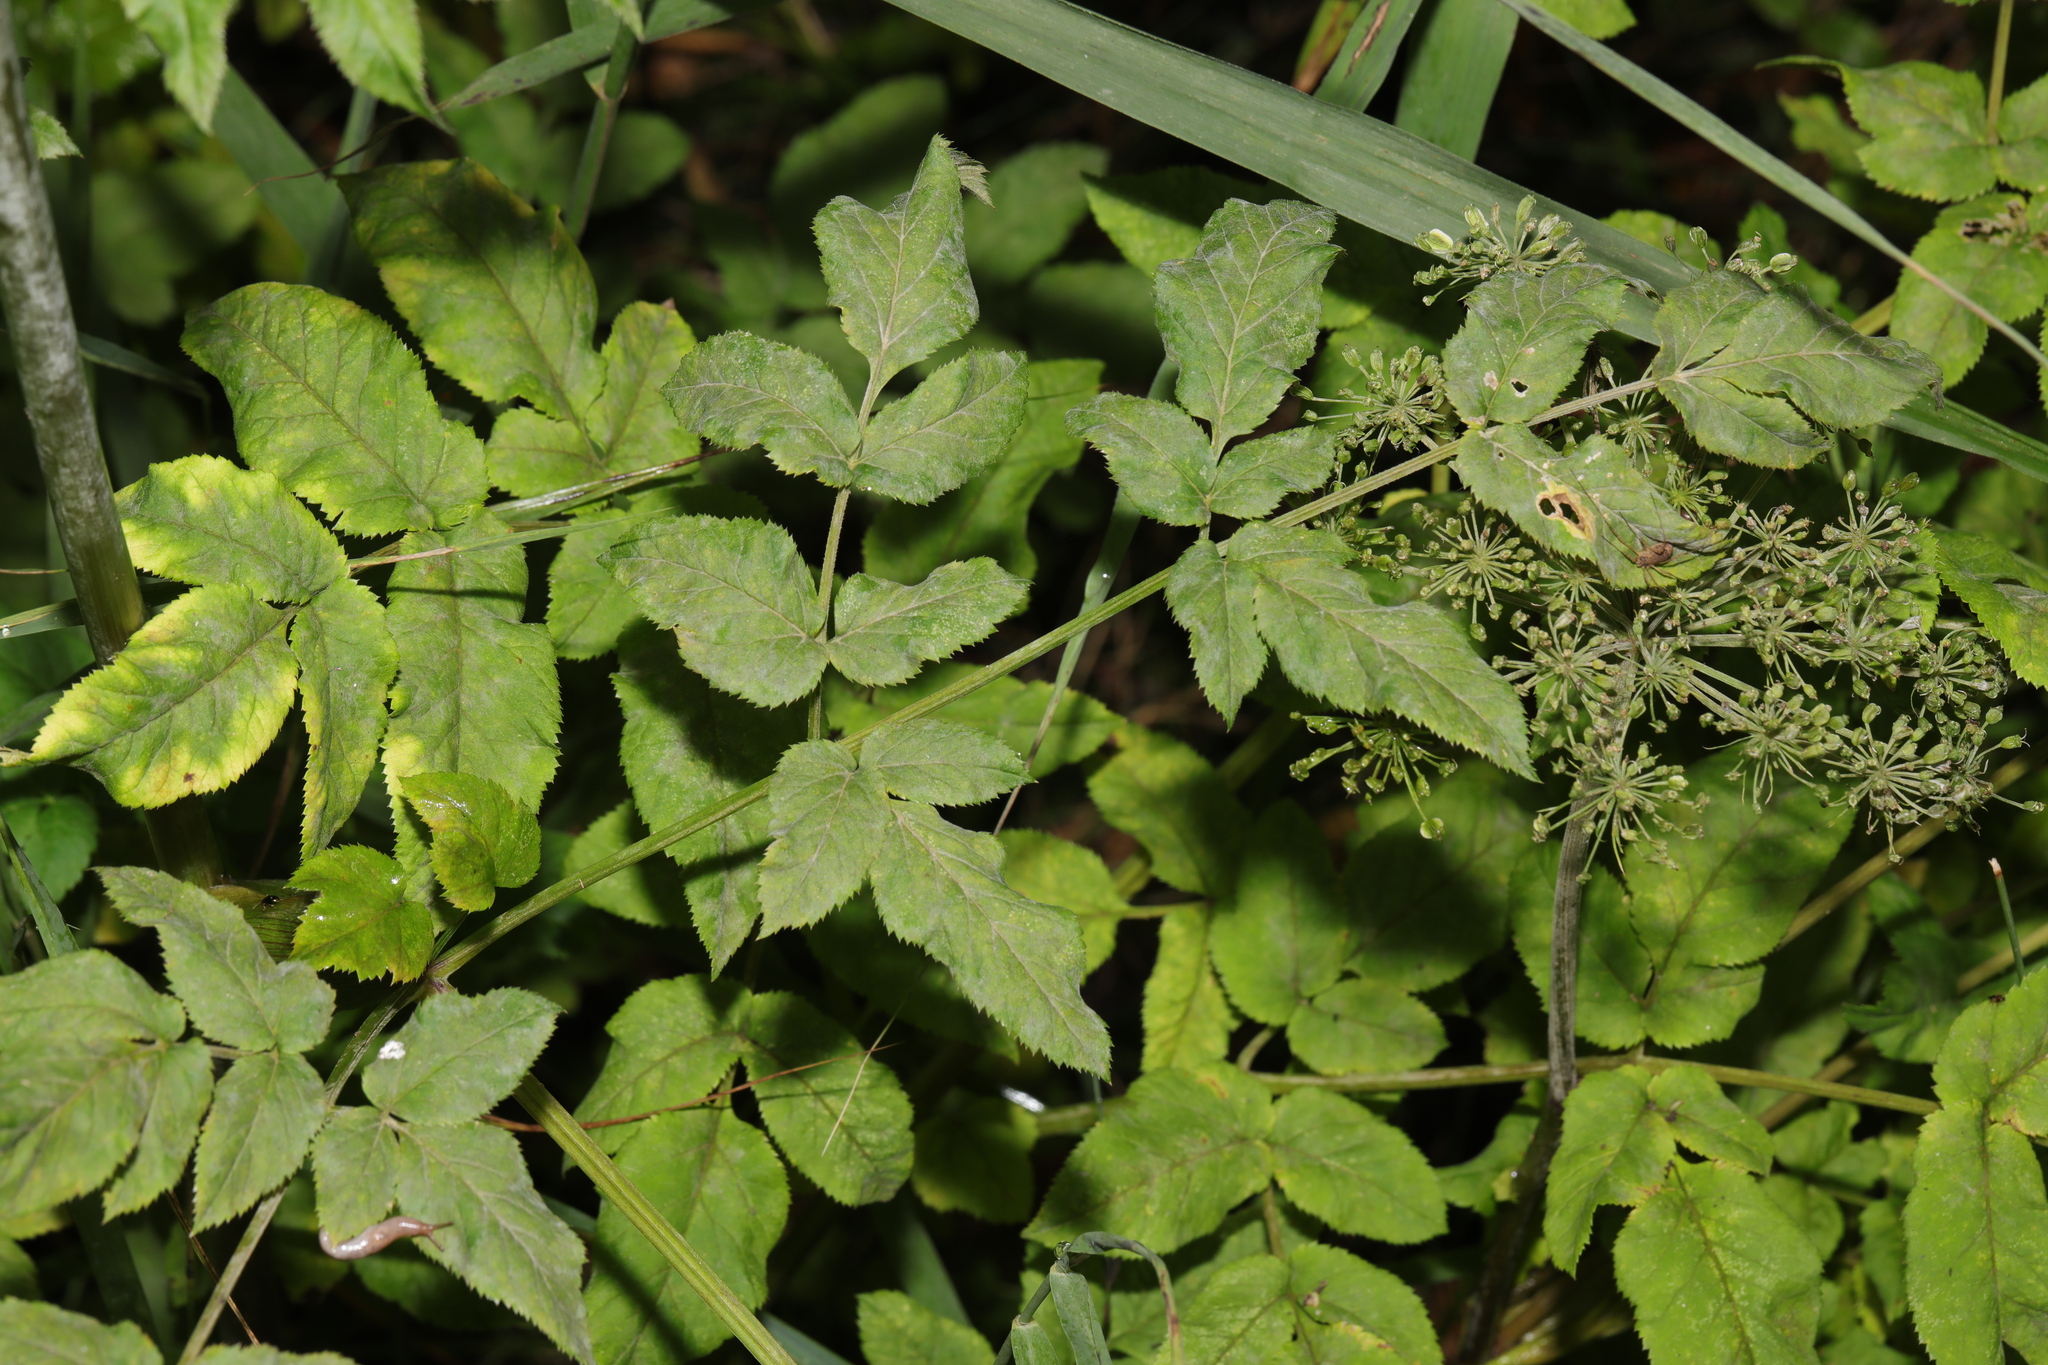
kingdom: Plantae
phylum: Tracheophyta
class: Magnoliopsida
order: Apiales
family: Apiaceae
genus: Angelica
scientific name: Angelica sylvestris
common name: Wild angelica
